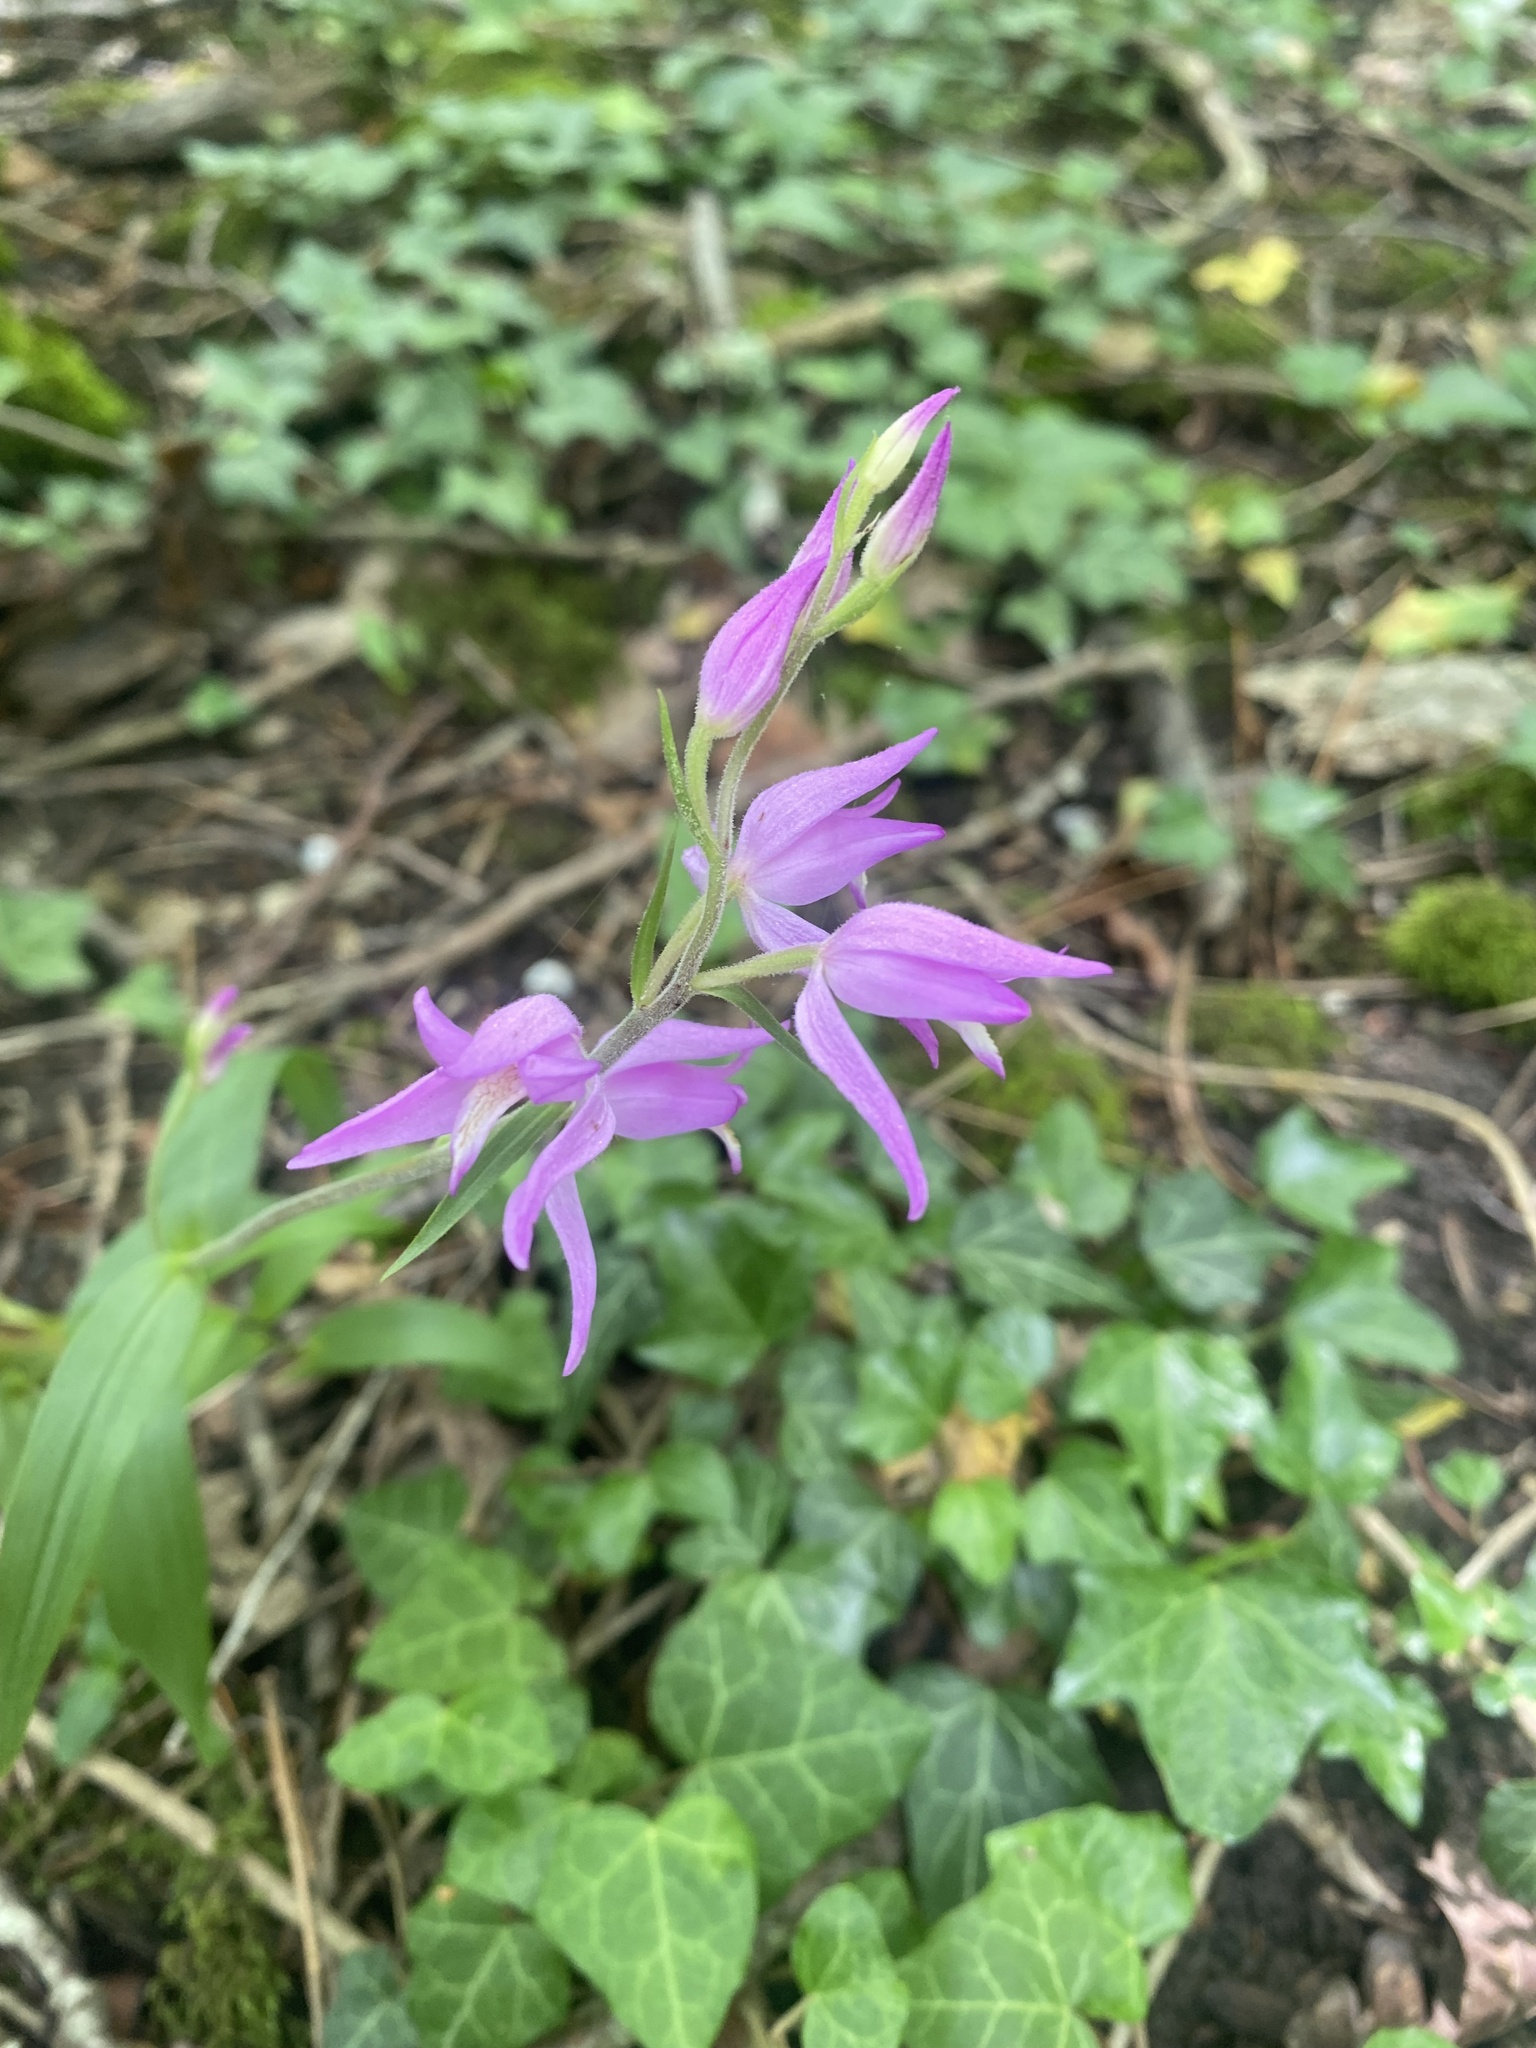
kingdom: Plantae
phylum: Tracheophyta
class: Liliopsida
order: Asparagales
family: Orchidaceae
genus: Cephalanthera
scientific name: Cephalanthera rubra
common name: Red helleborine
